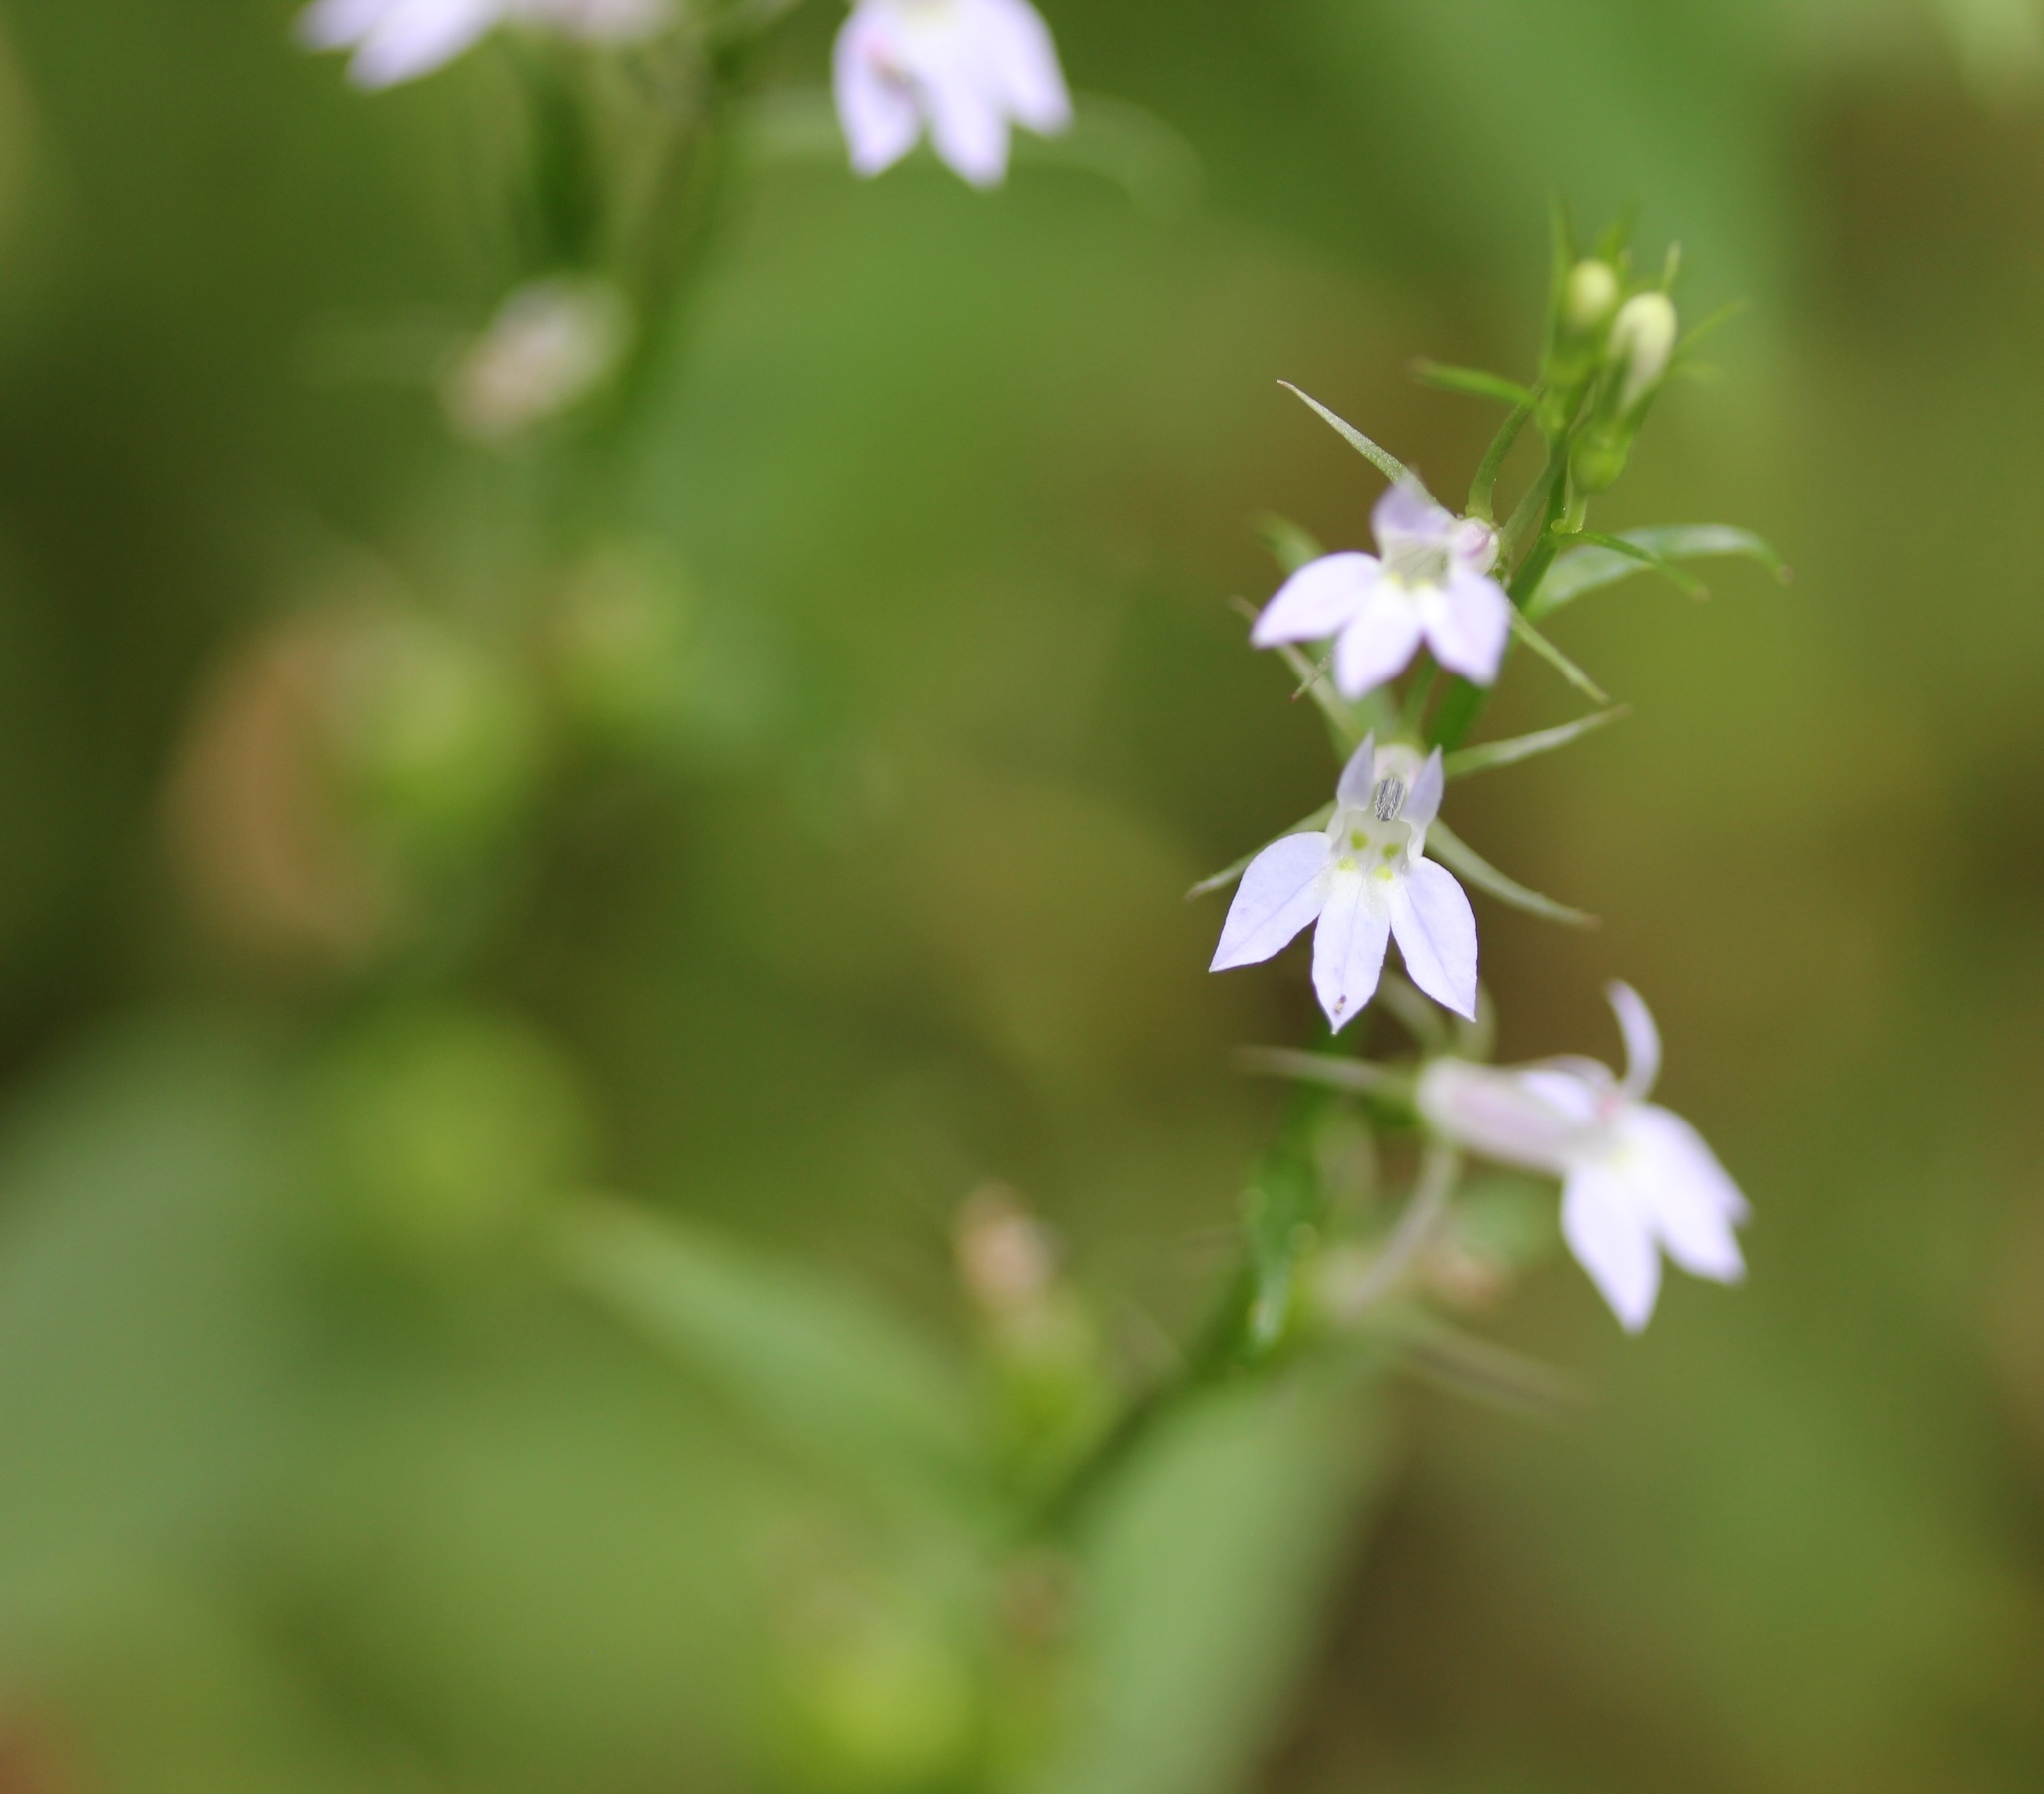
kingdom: Plantae
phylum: Tracheophyta
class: Magnoliopsida
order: Asterales
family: Campanulaceae
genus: Lobelia
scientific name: Lobelia inflata
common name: Indian tobacco
